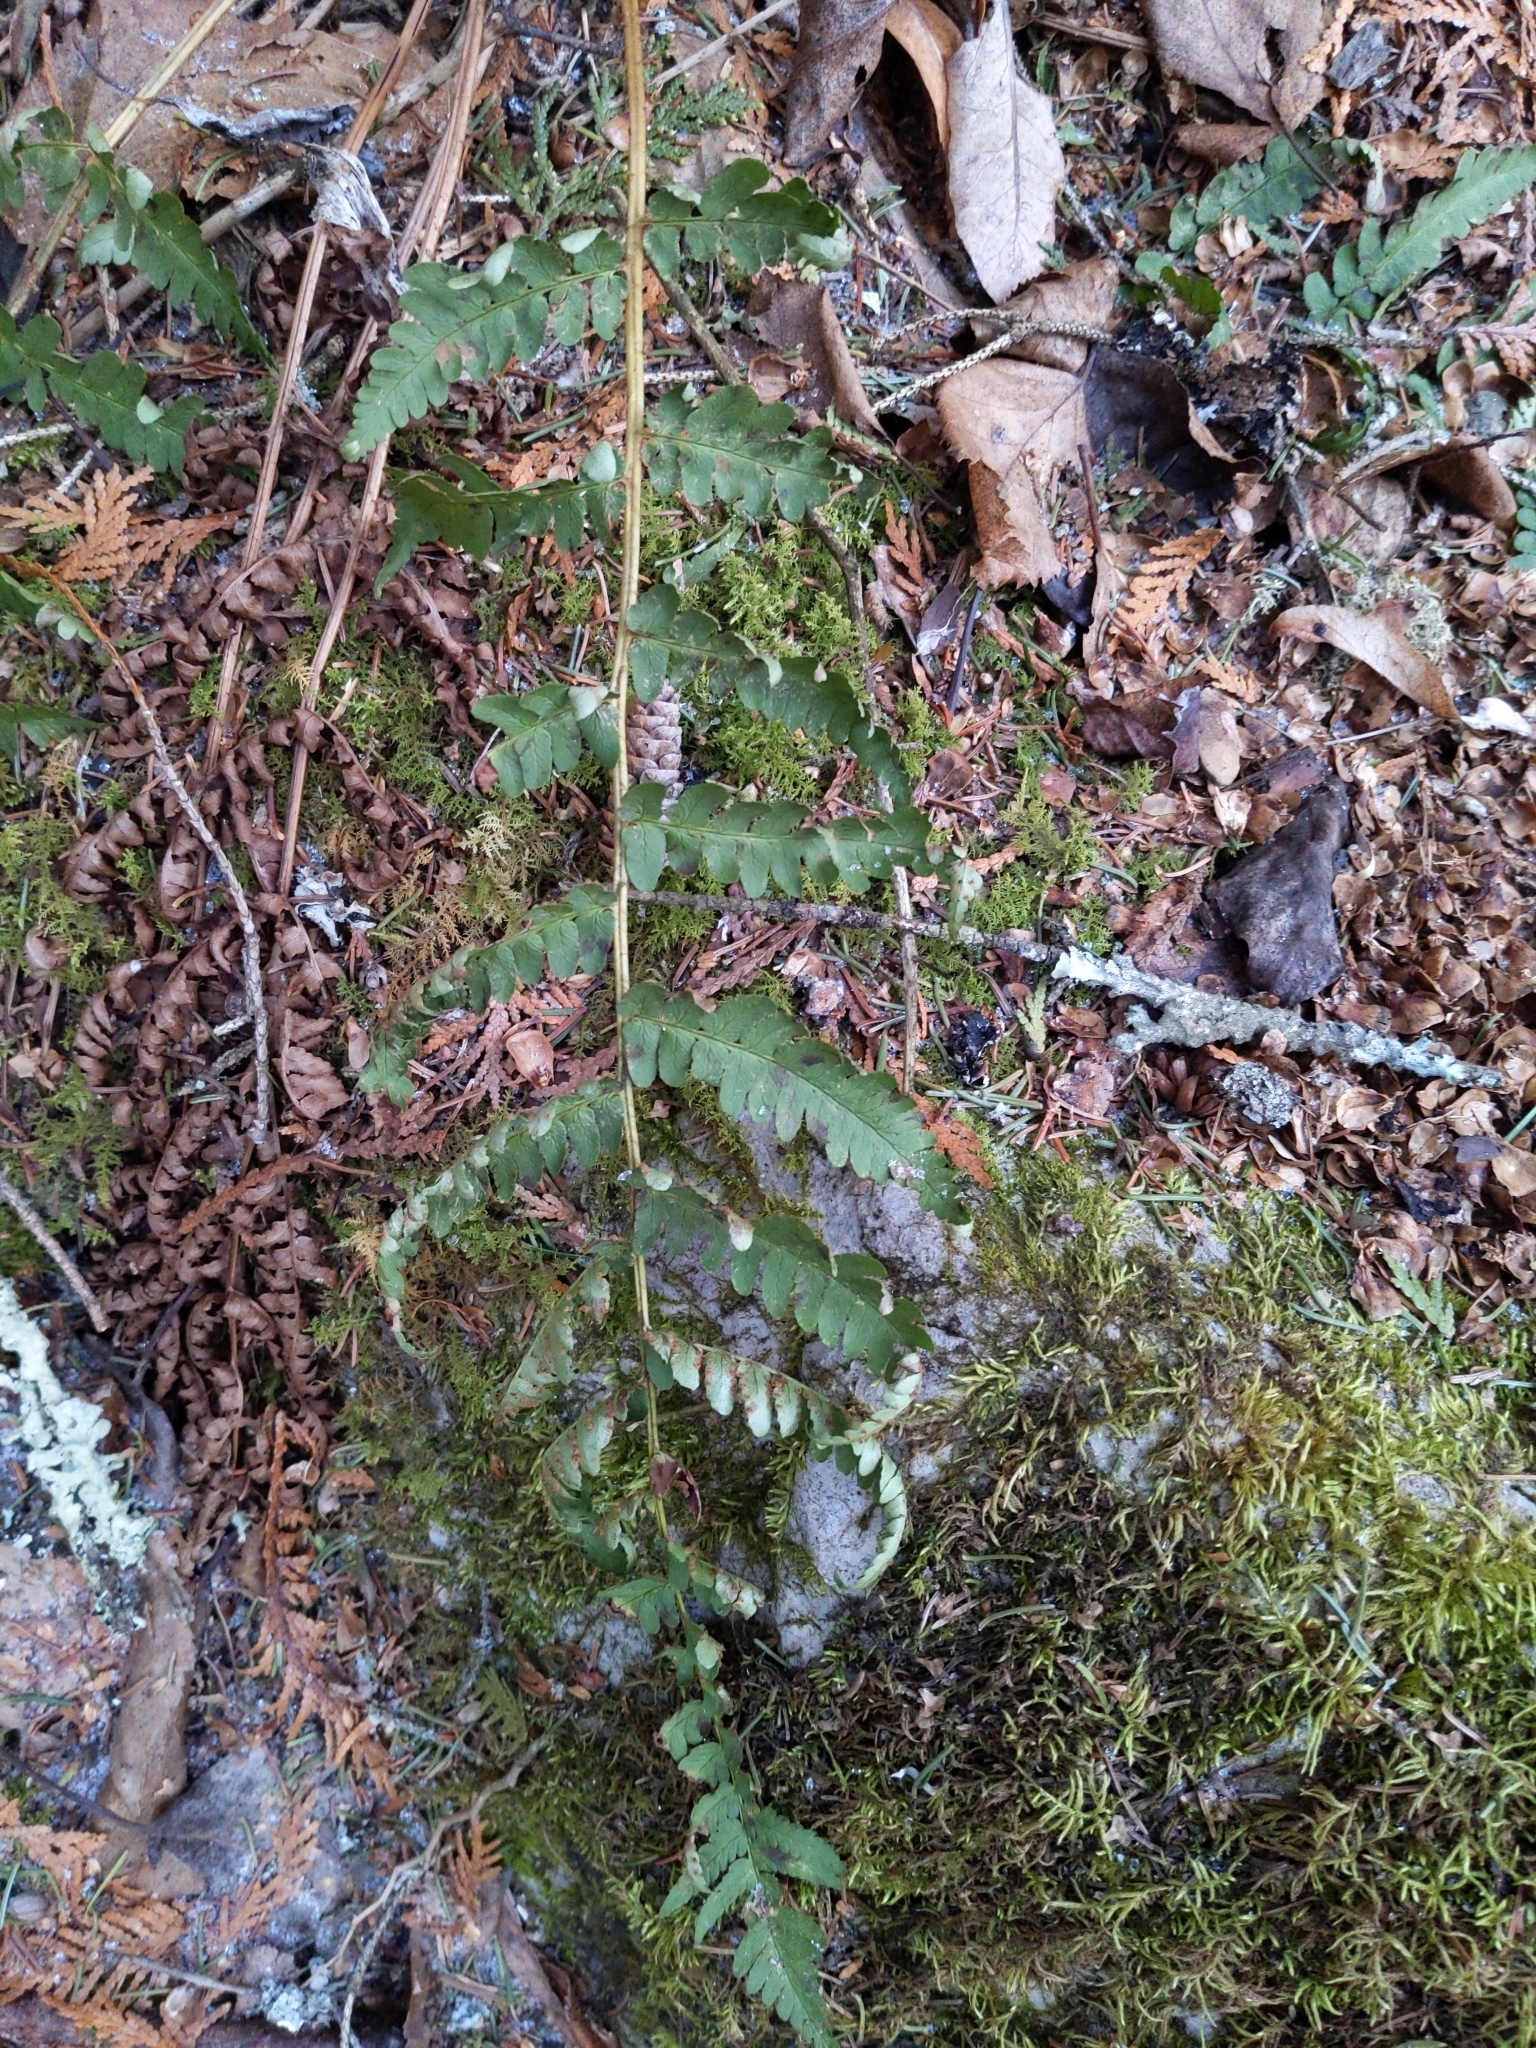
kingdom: Plantae
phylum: Tracheophyta
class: Polypodiopsida
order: Polypodiales
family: Dryopteridaceae
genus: Dryopteris
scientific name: Dryopteris marginalis
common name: Marginal wood fern
